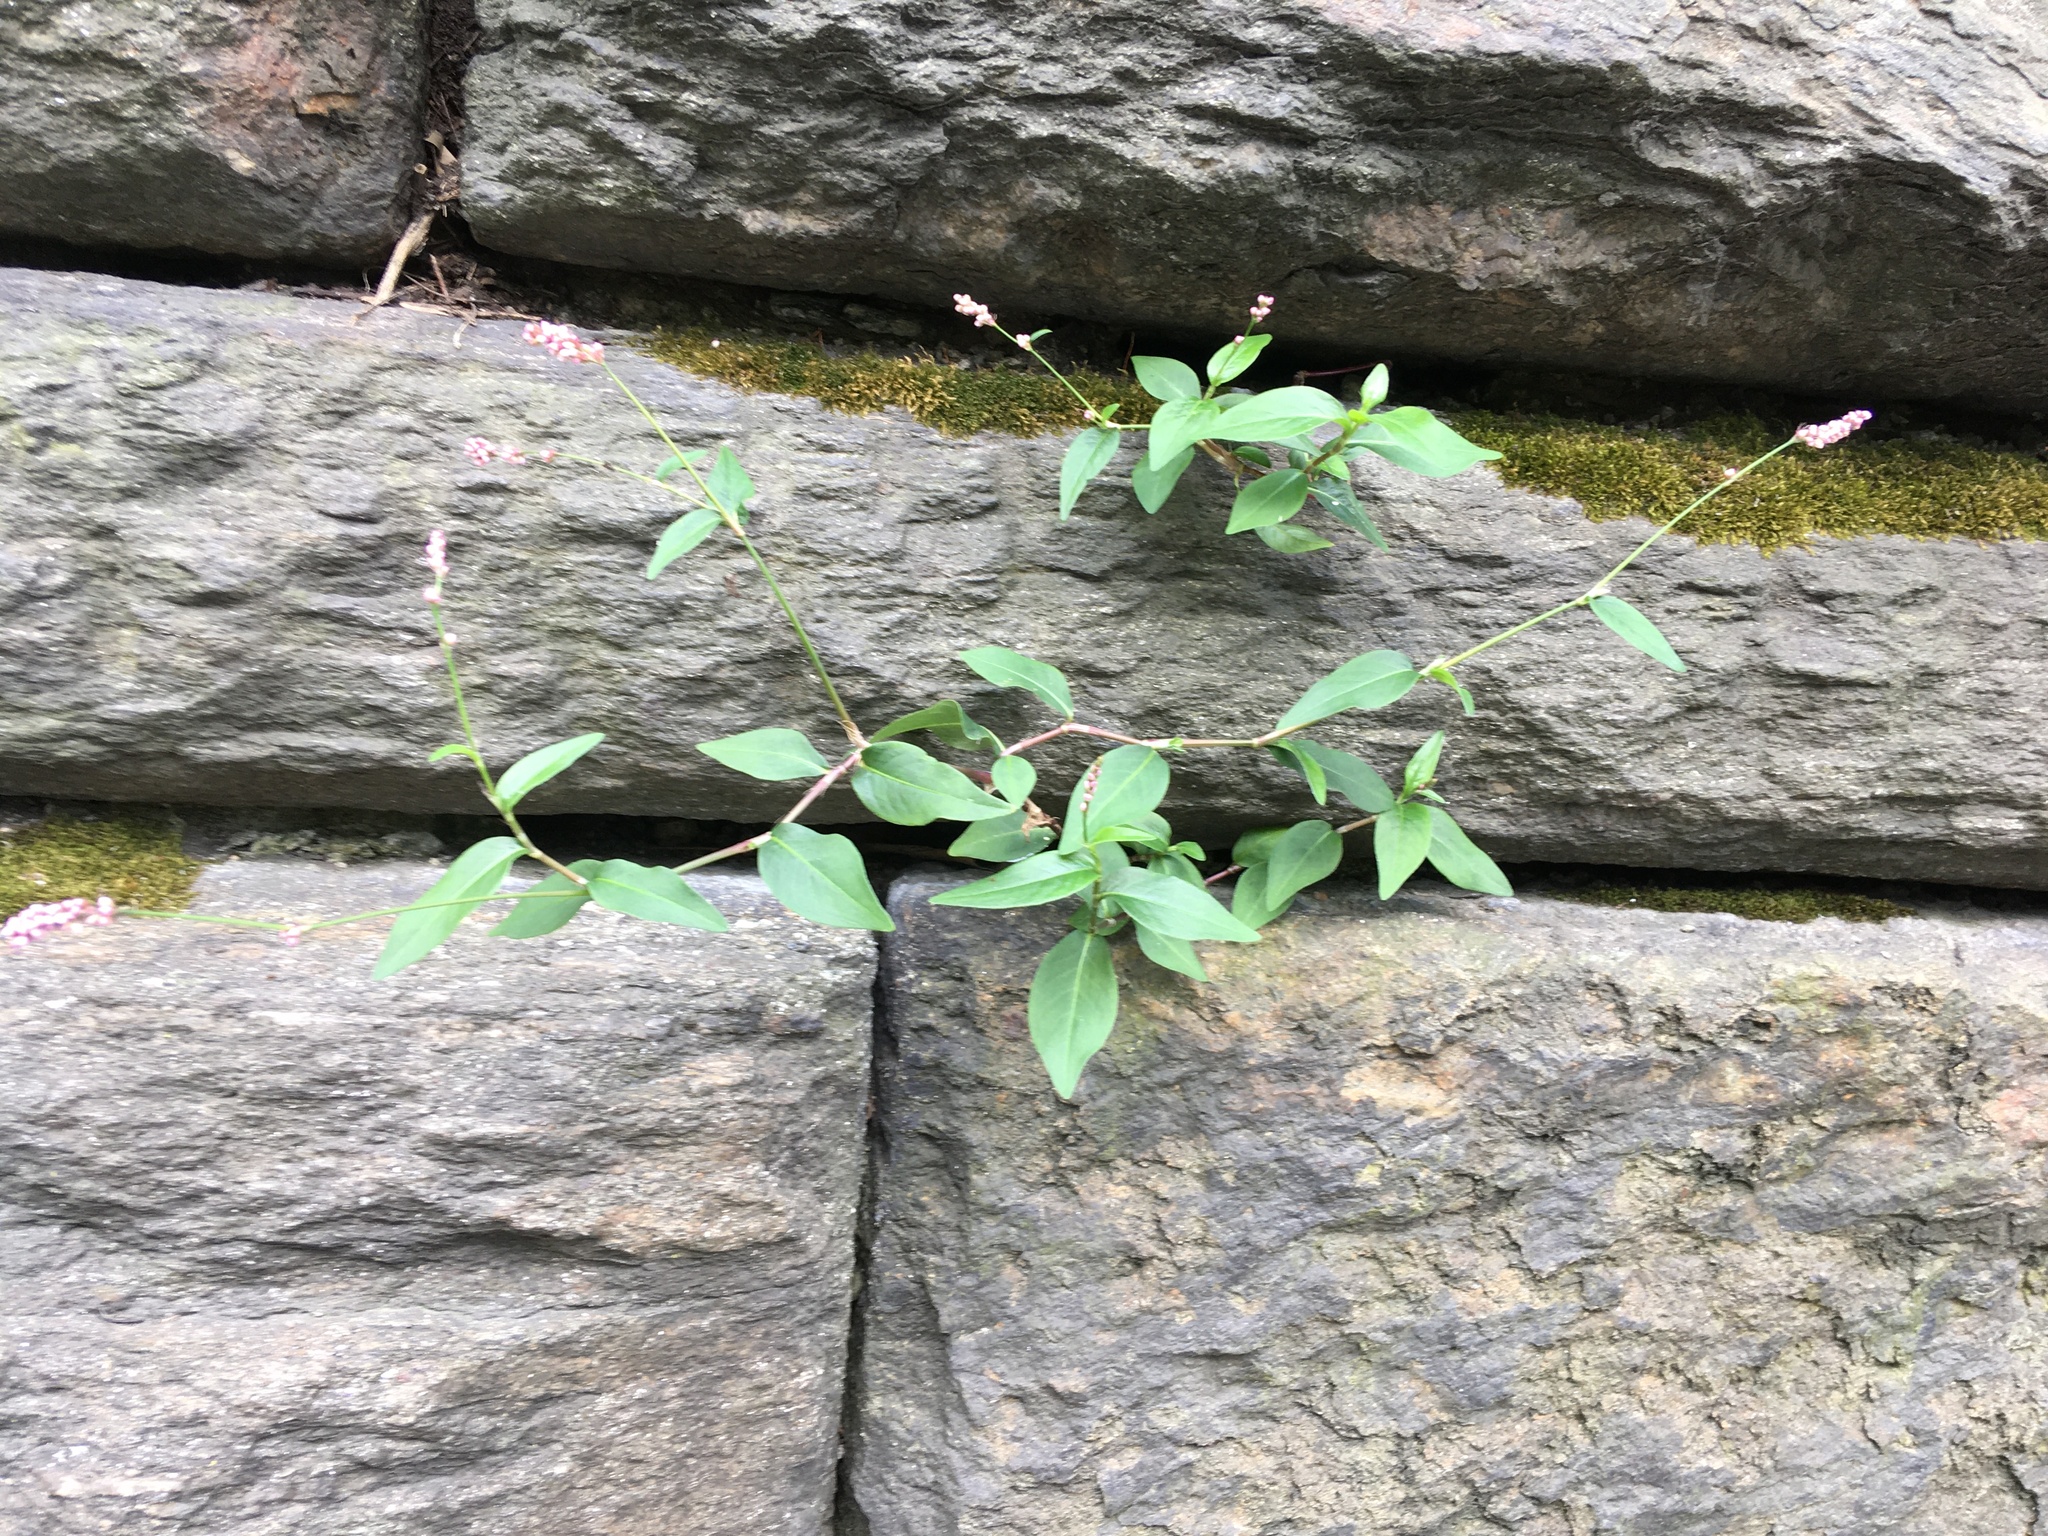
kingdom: Plantae
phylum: Tracheophyta
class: Magnoliopsida
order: Caryophyllales
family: Polygonaceae
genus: Persicaria
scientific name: Persicaria longiseta
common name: Bristly lady's-thumb
